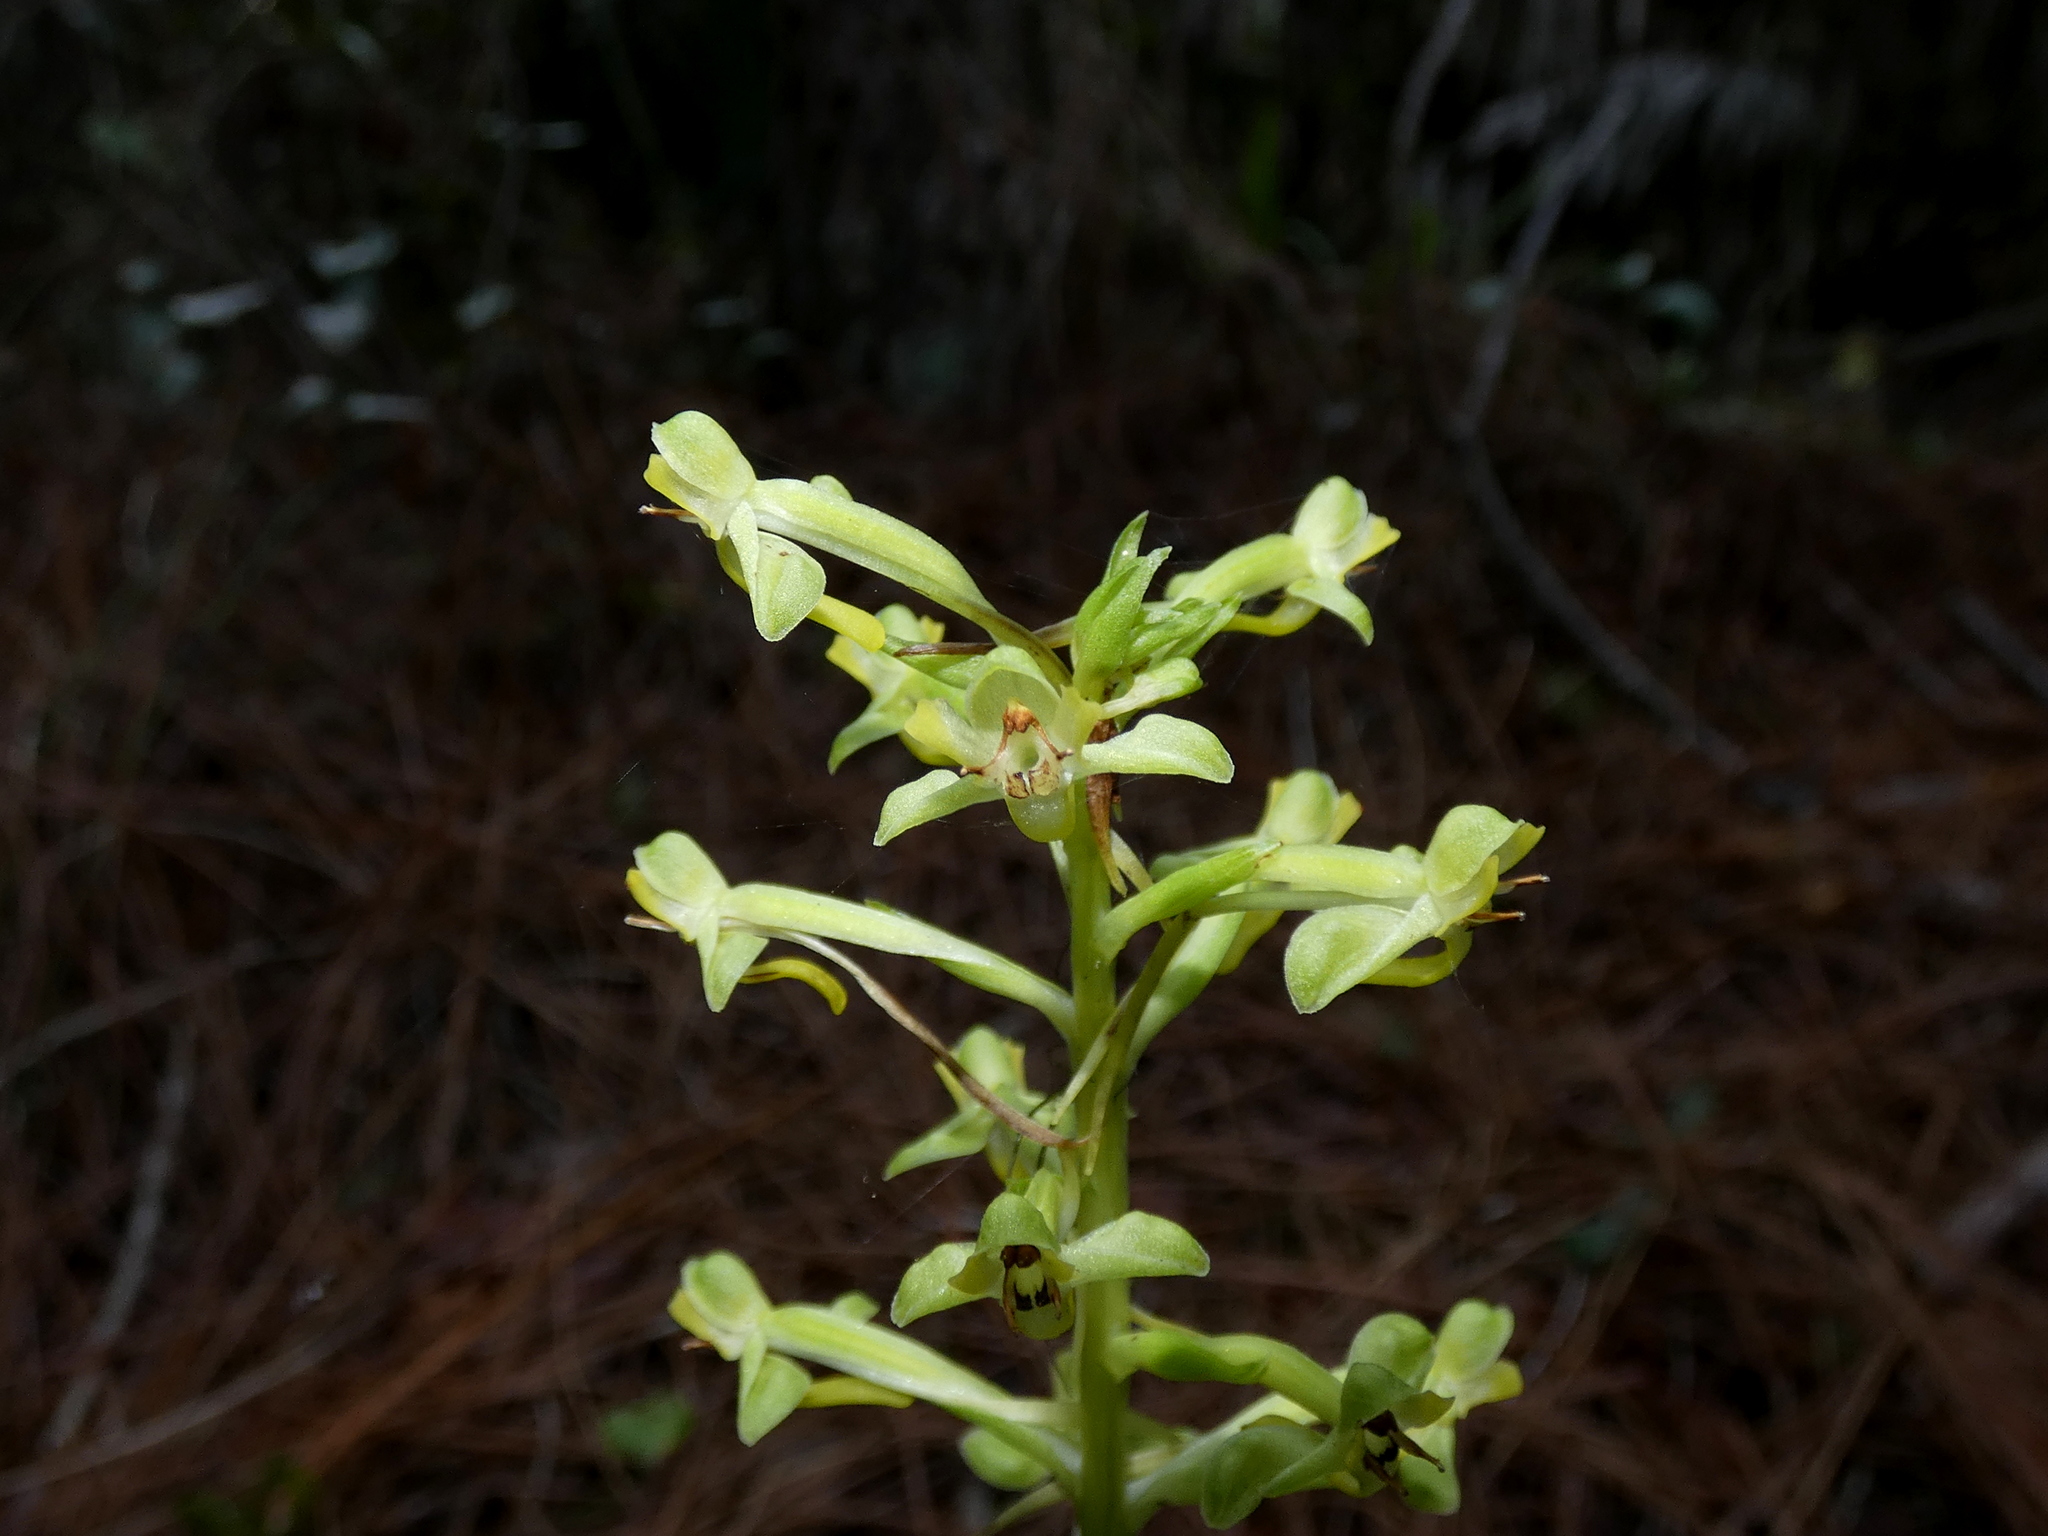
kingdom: Plantae
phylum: Tracheophyta
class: Liliopsida
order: Asparagales
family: Orchidaceae
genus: Habenaria
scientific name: Habenaria floribunda
